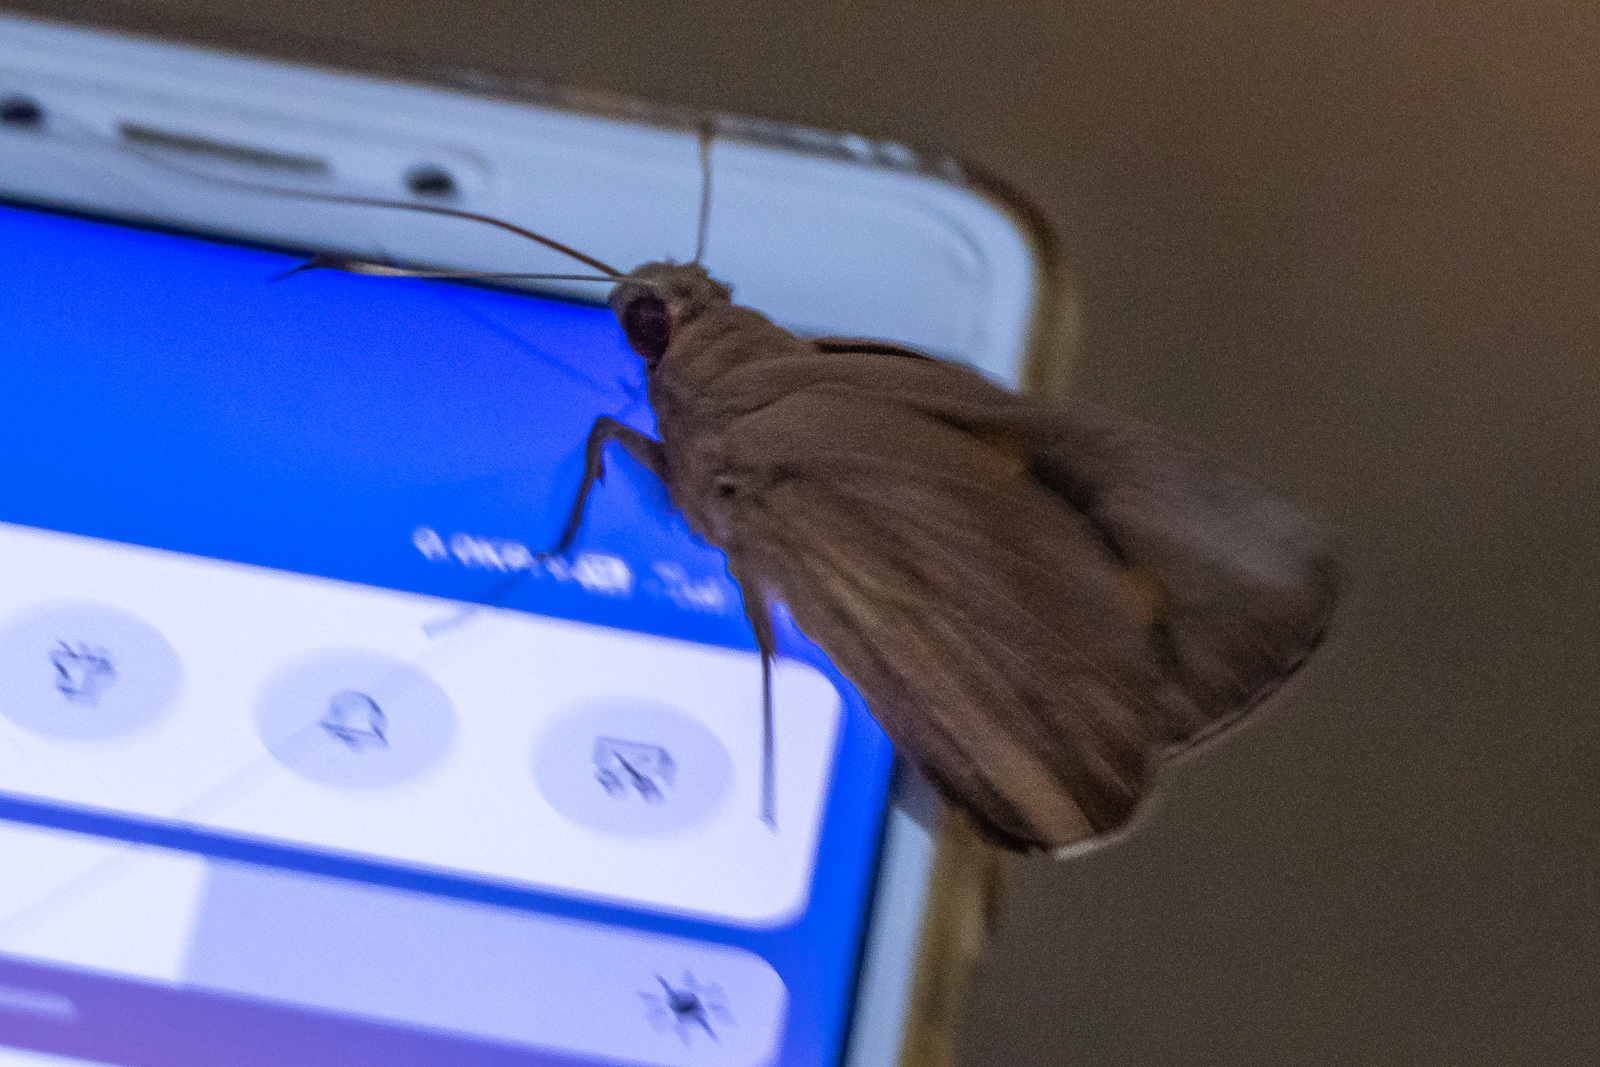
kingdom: Animalia
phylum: Arthropoda
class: Insecta
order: Lepidoptera
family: Hesperiidae
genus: Erionota
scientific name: Erionota torus
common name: Rounded palm-redeye
